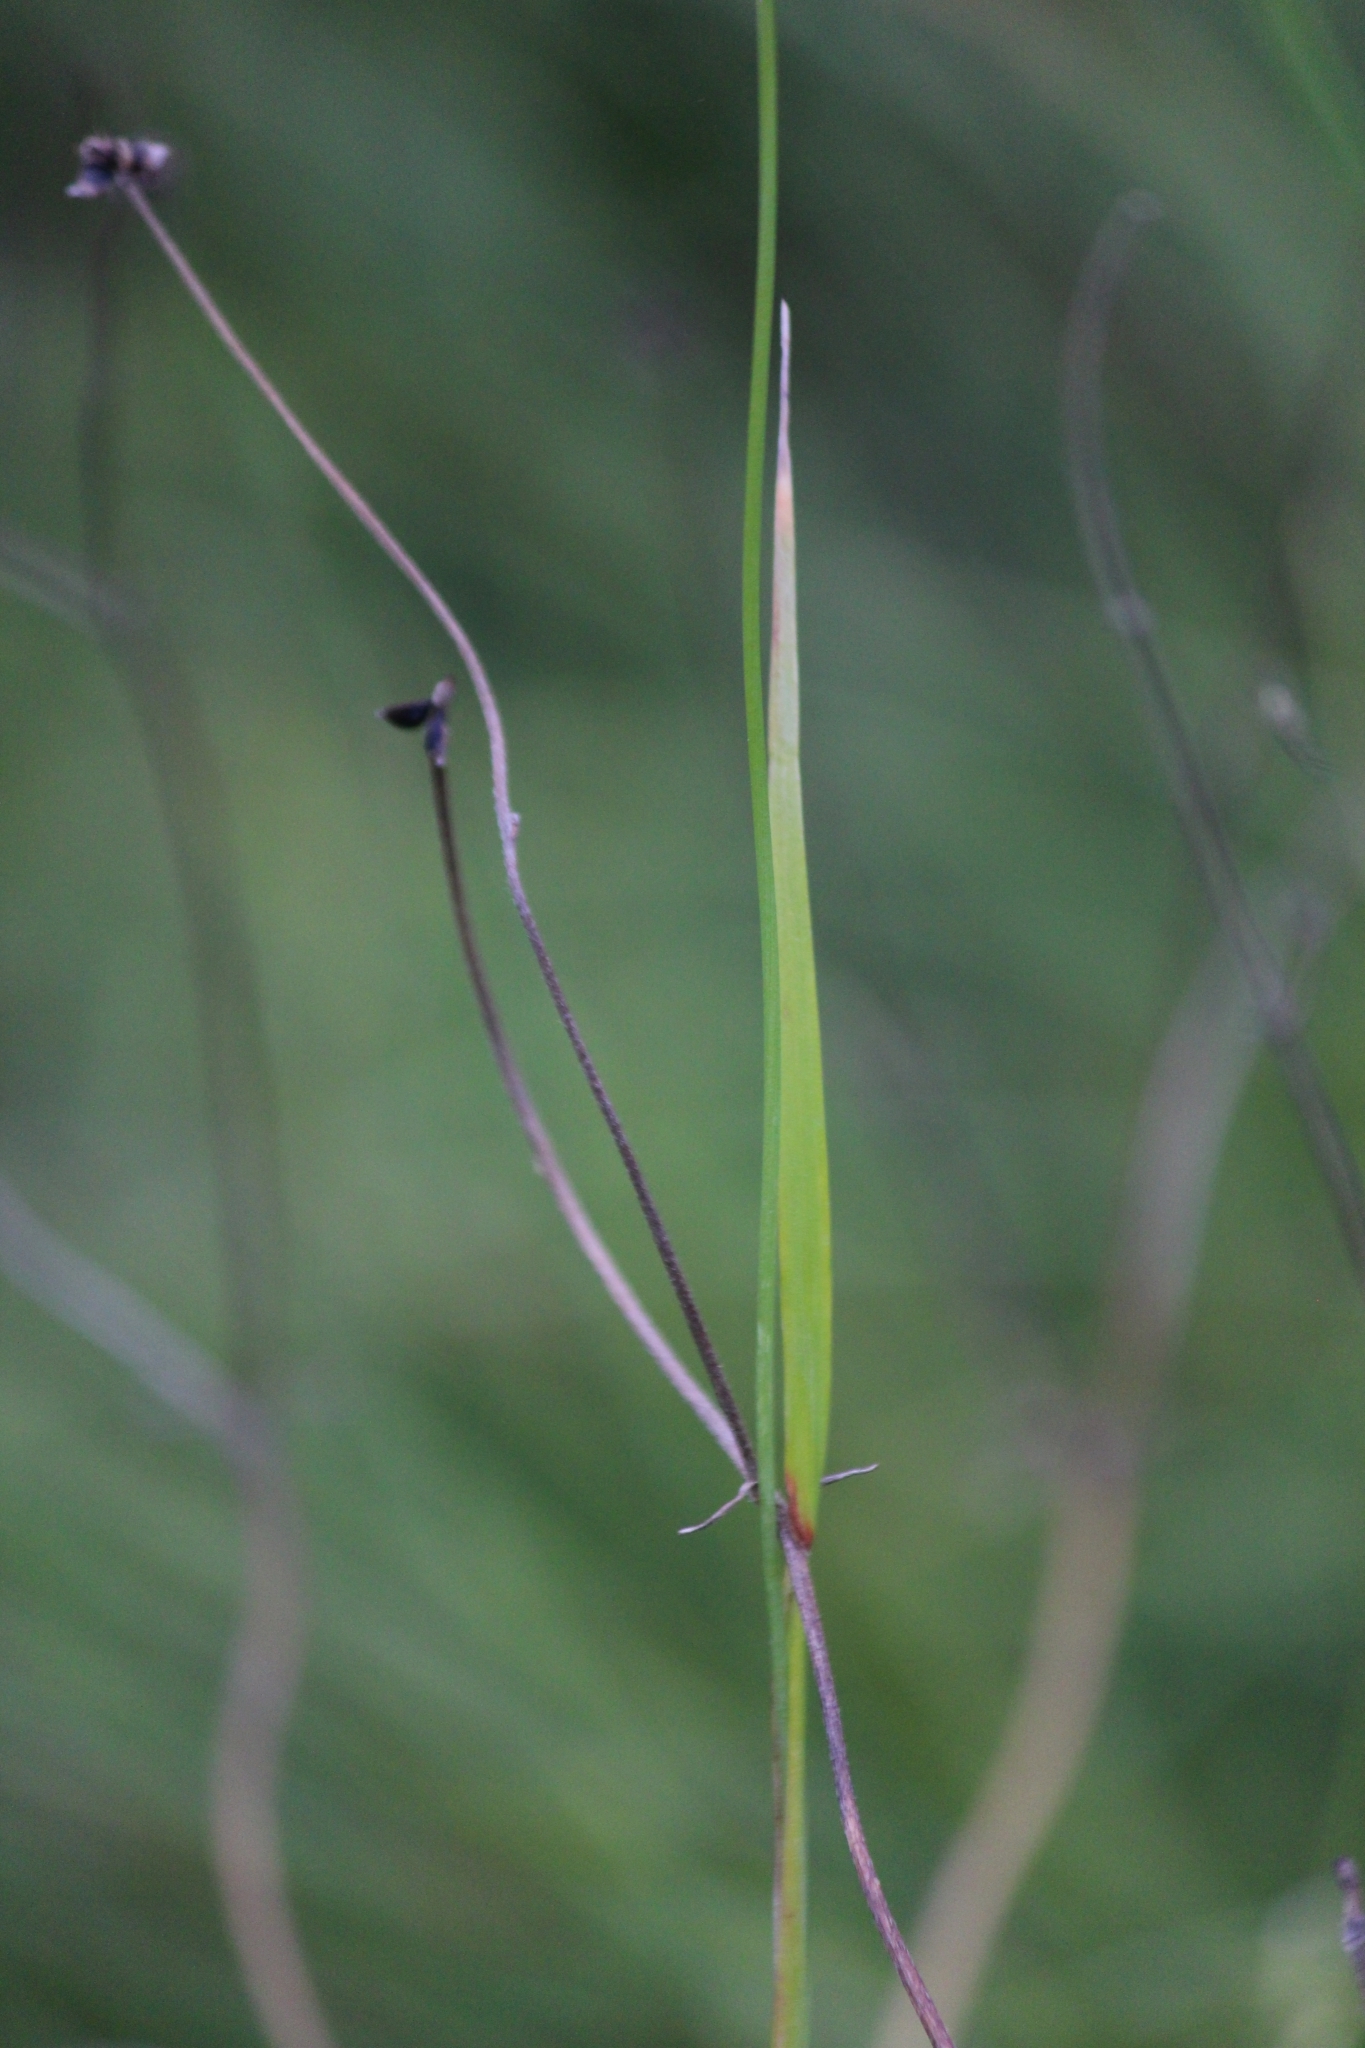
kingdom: Plantae
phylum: Tracheophyta
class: Liliopsida
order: Poales
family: Poaceae
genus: Alopecurus
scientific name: Alopecurus pratensis
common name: Meadow foxtail
